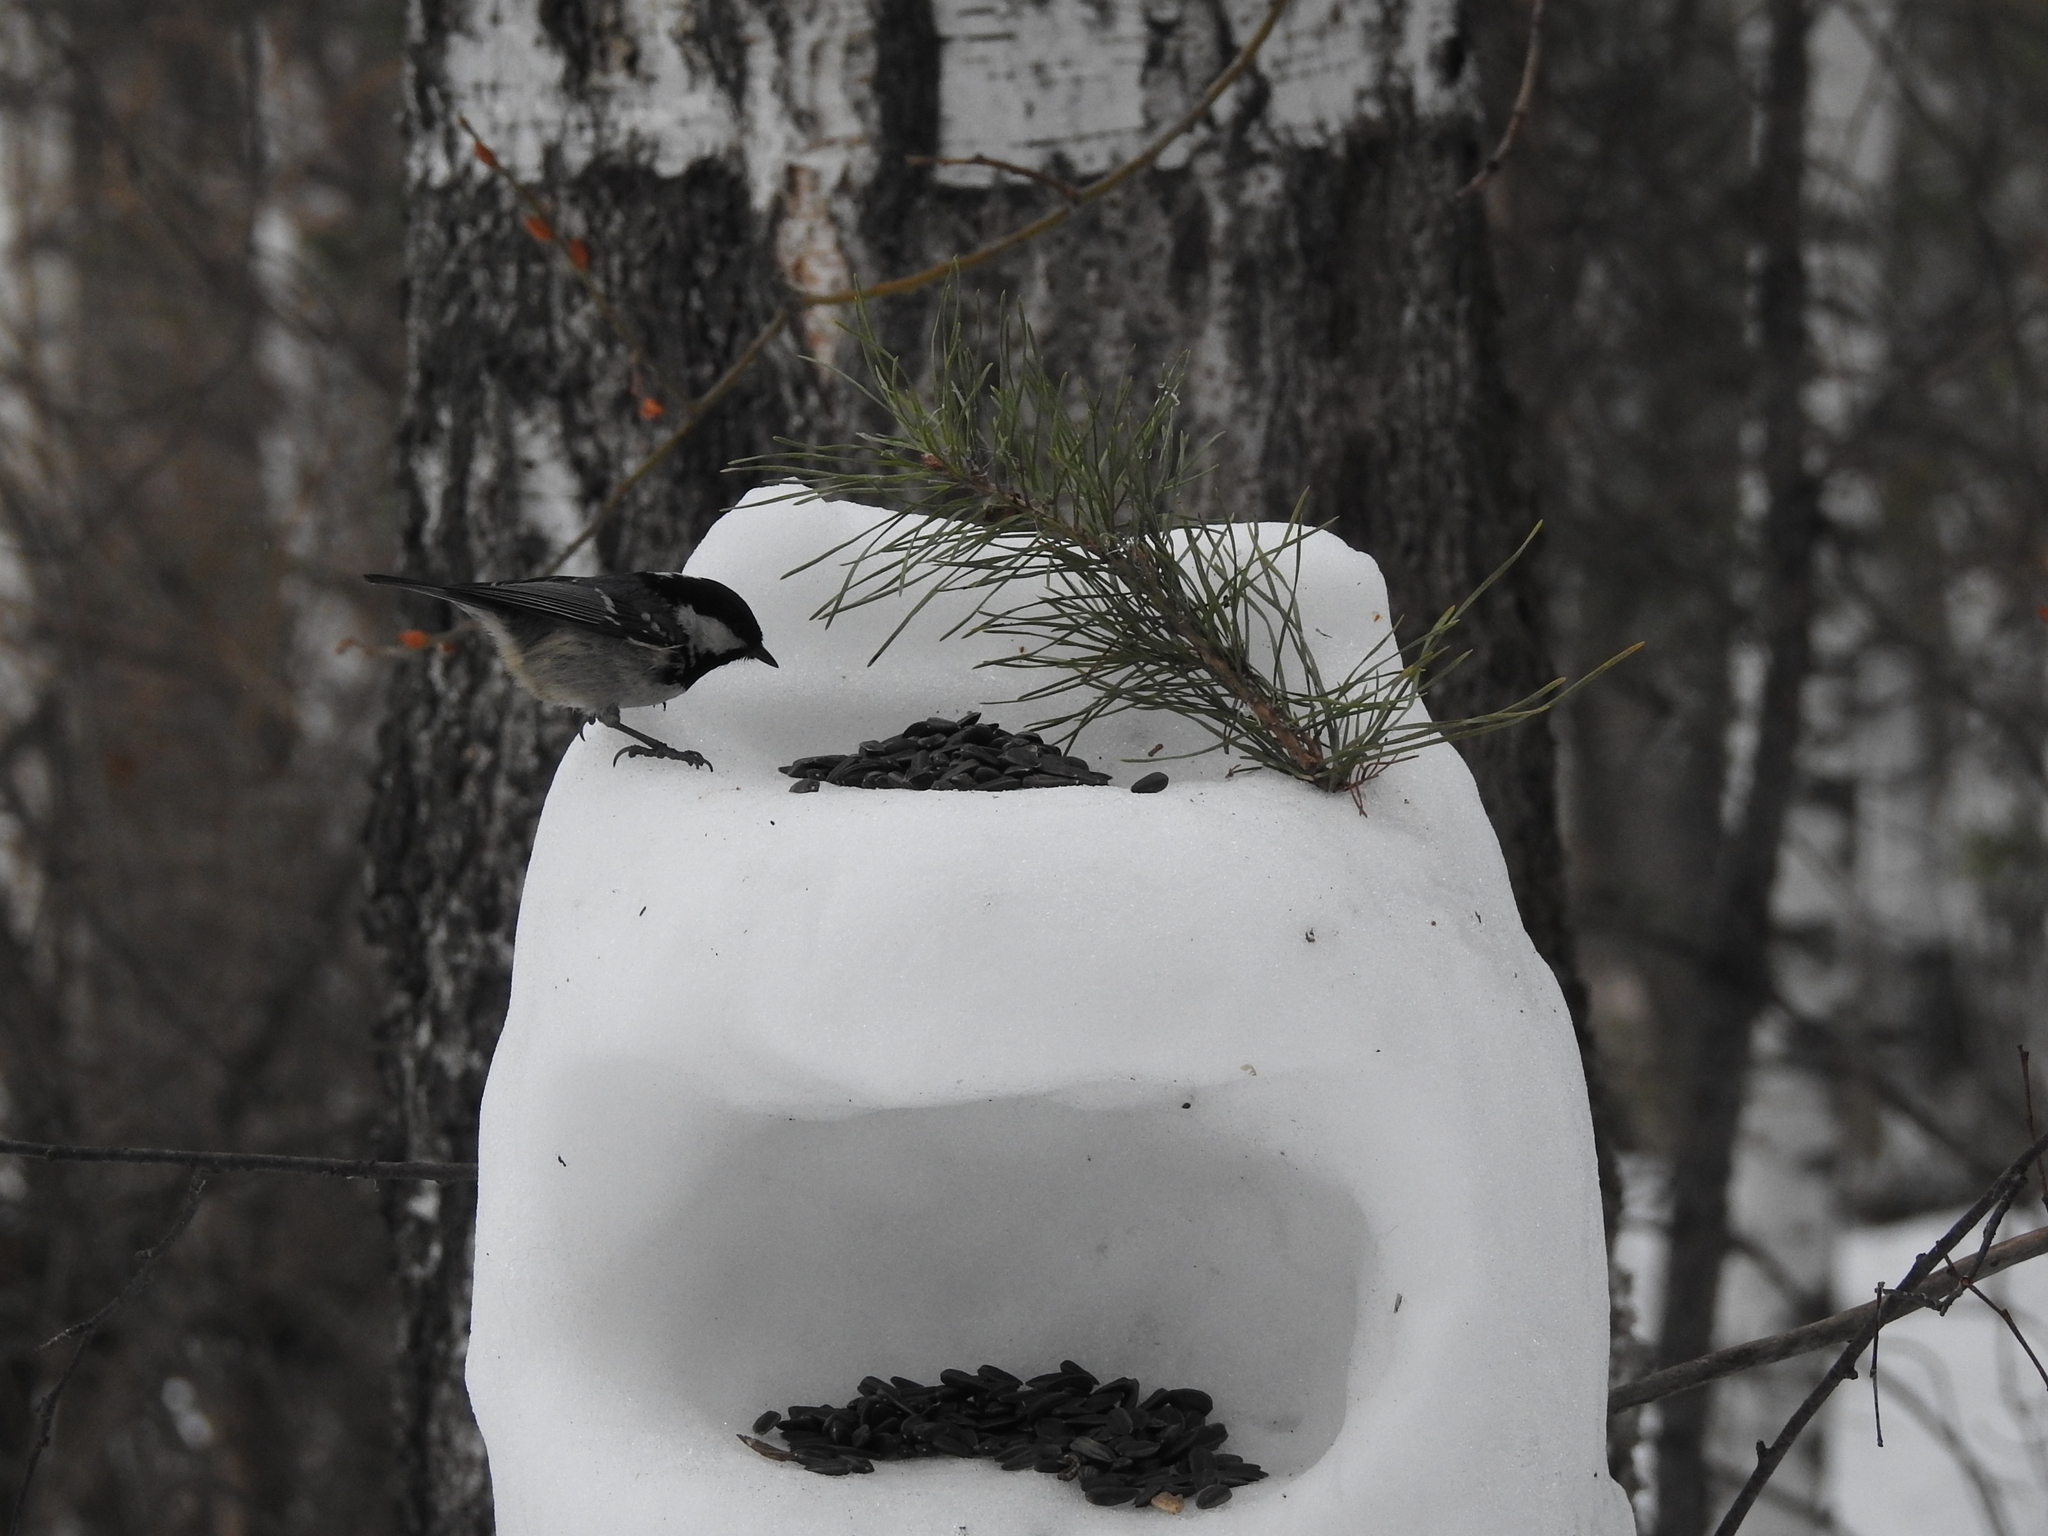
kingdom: Animalia
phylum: Chordata
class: Aves
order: Passeriformes
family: Paridae
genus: Periparus
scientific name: Periparus ater
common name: Coal tit
